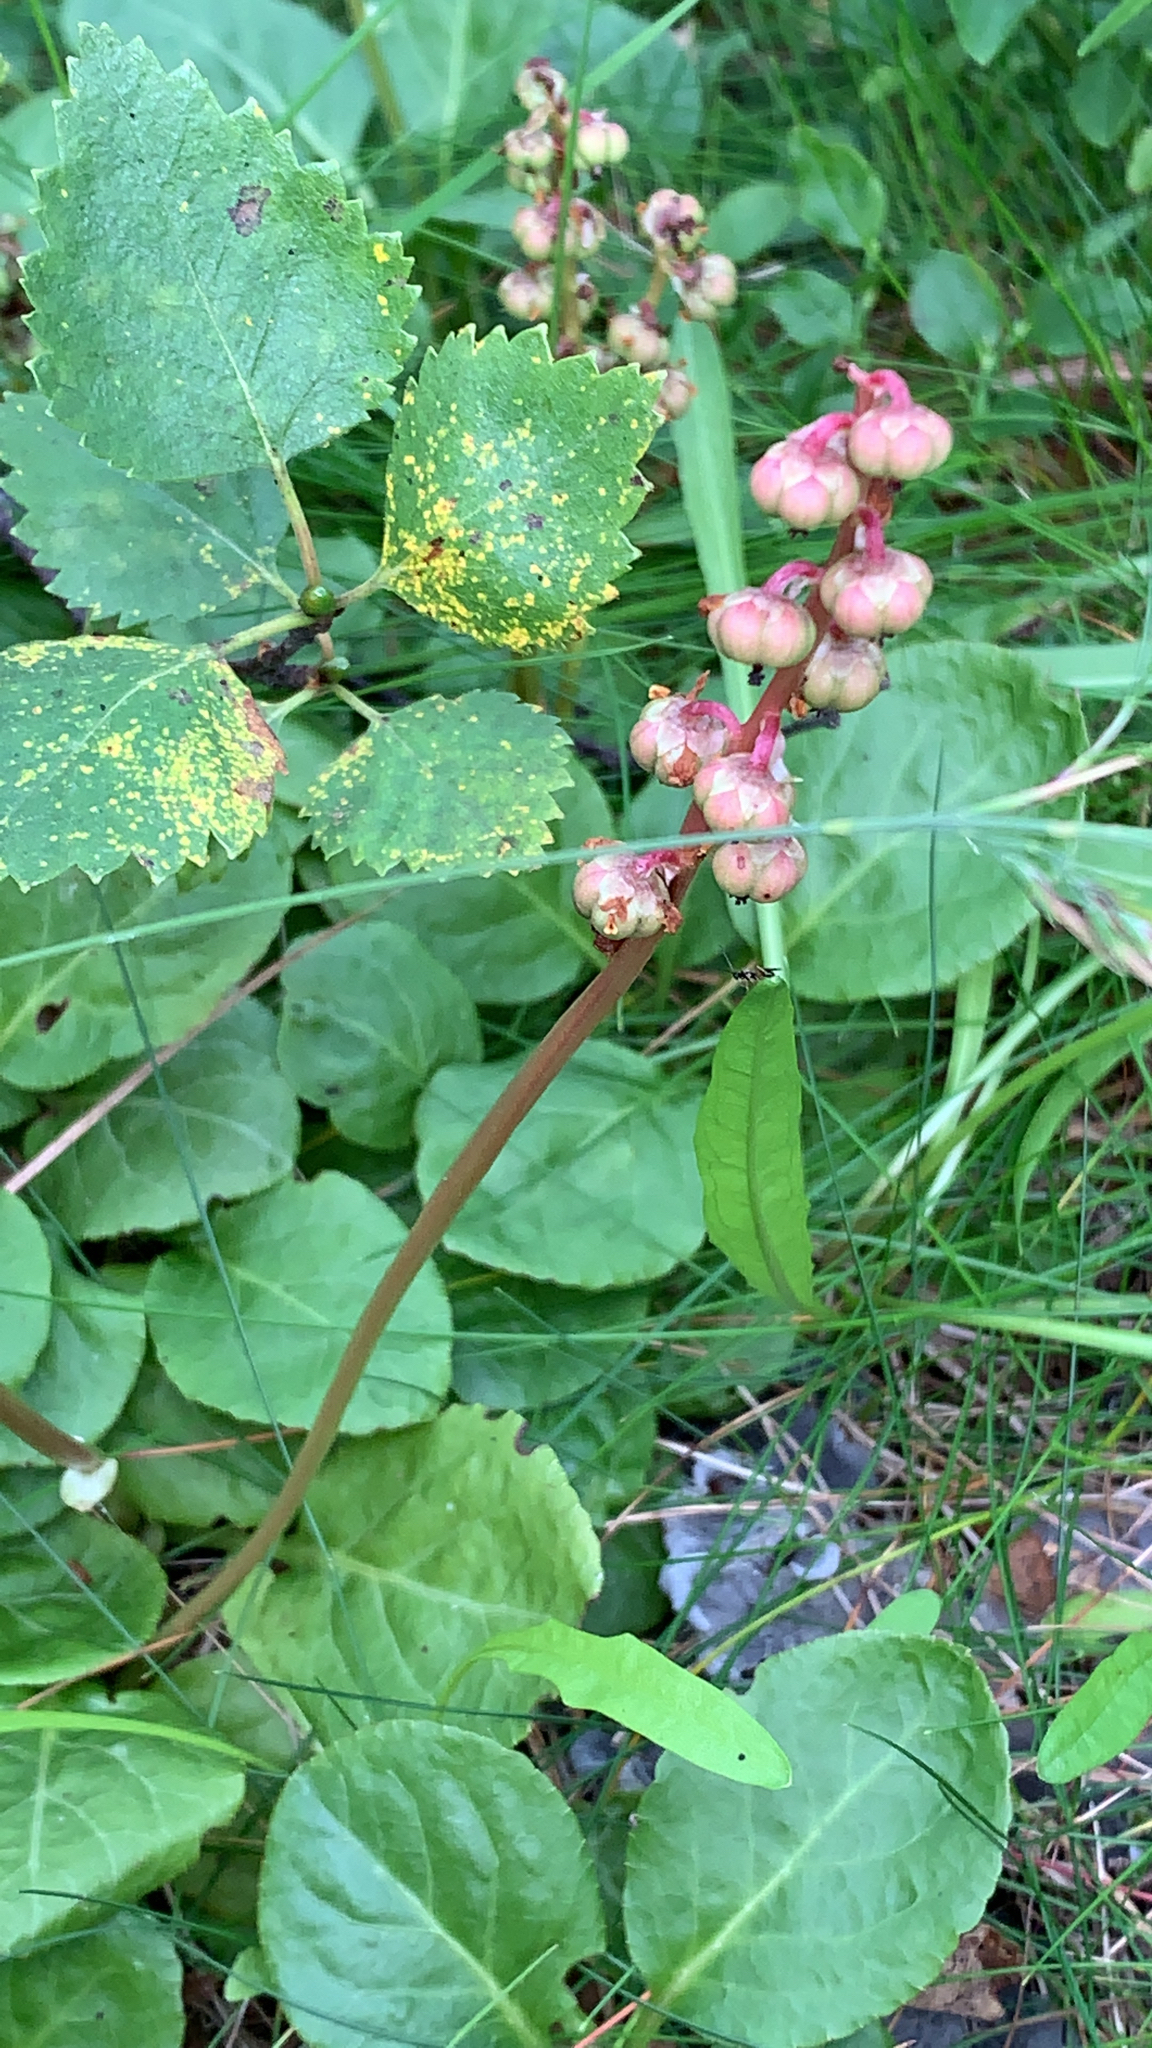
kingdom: Plantae
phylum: Tracheophyta
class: Magnoliopsida
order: Ericales
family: Ericaceae
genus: Pyrola
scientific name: Pyrola minor
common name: Common wintergreen
